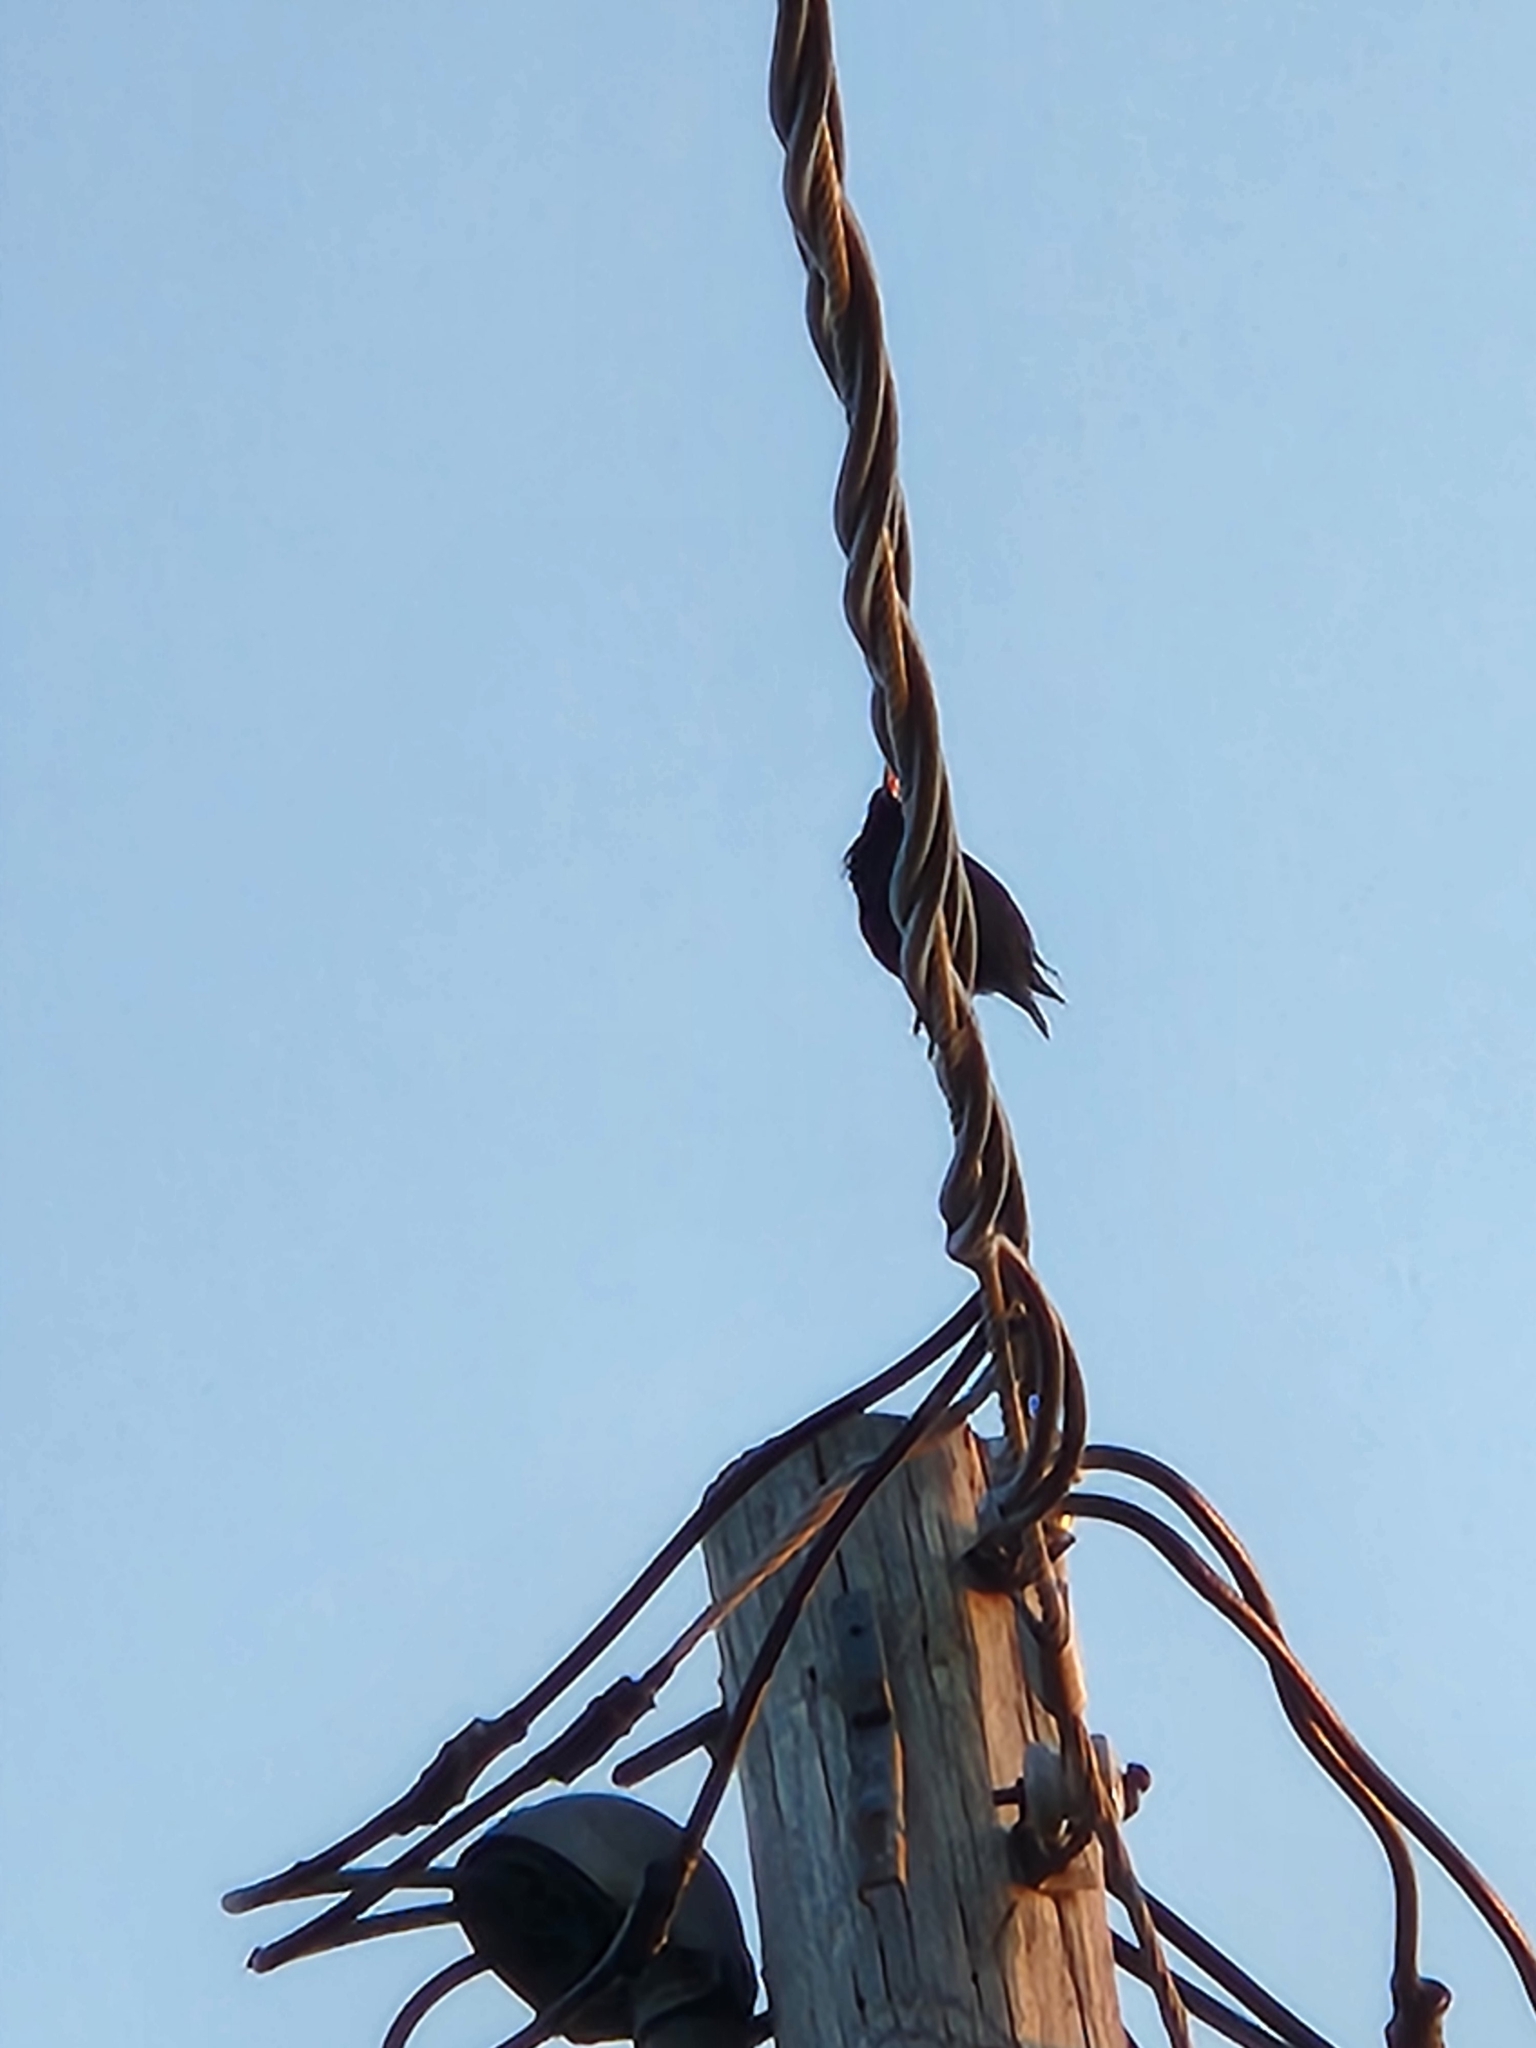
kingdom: Animalia
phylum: Chordata
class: Aves
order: Passeriformes
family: Sturnidae
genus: Sturnus
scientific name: Sturnus vulgaris
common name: Common starling
